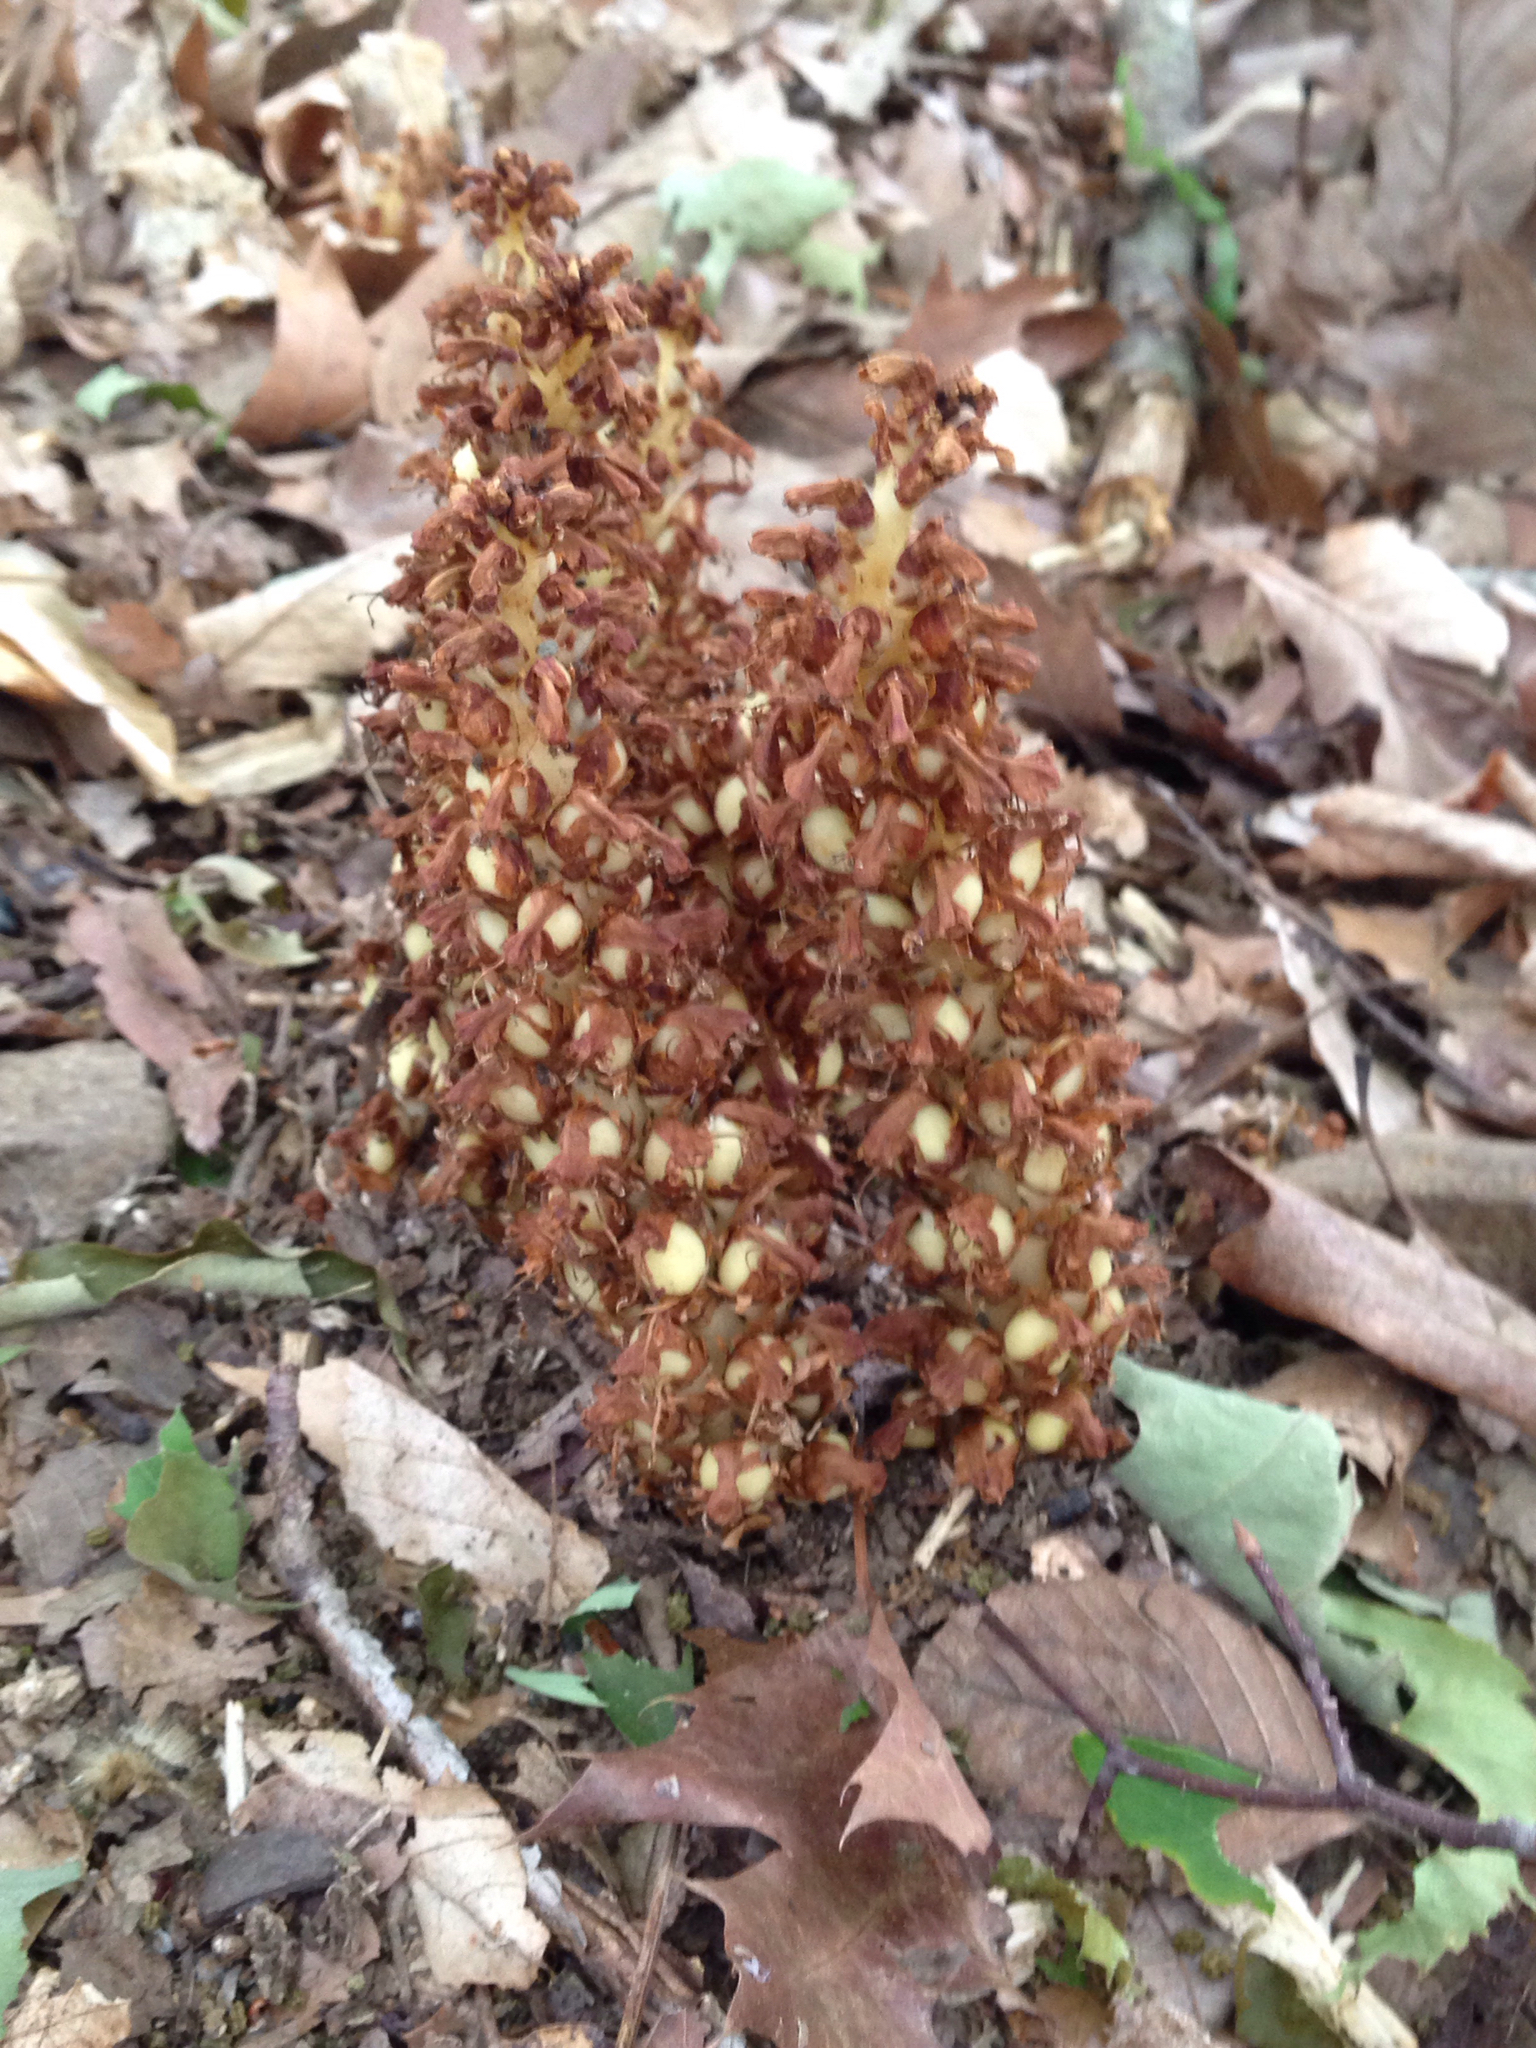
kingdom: Plantae
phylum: Tracheophyta
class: Magnoliopsida
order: Lamiales
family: Orobanchaceae
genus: Conopholis
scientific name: Conopholis americana
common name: American cancer-root
